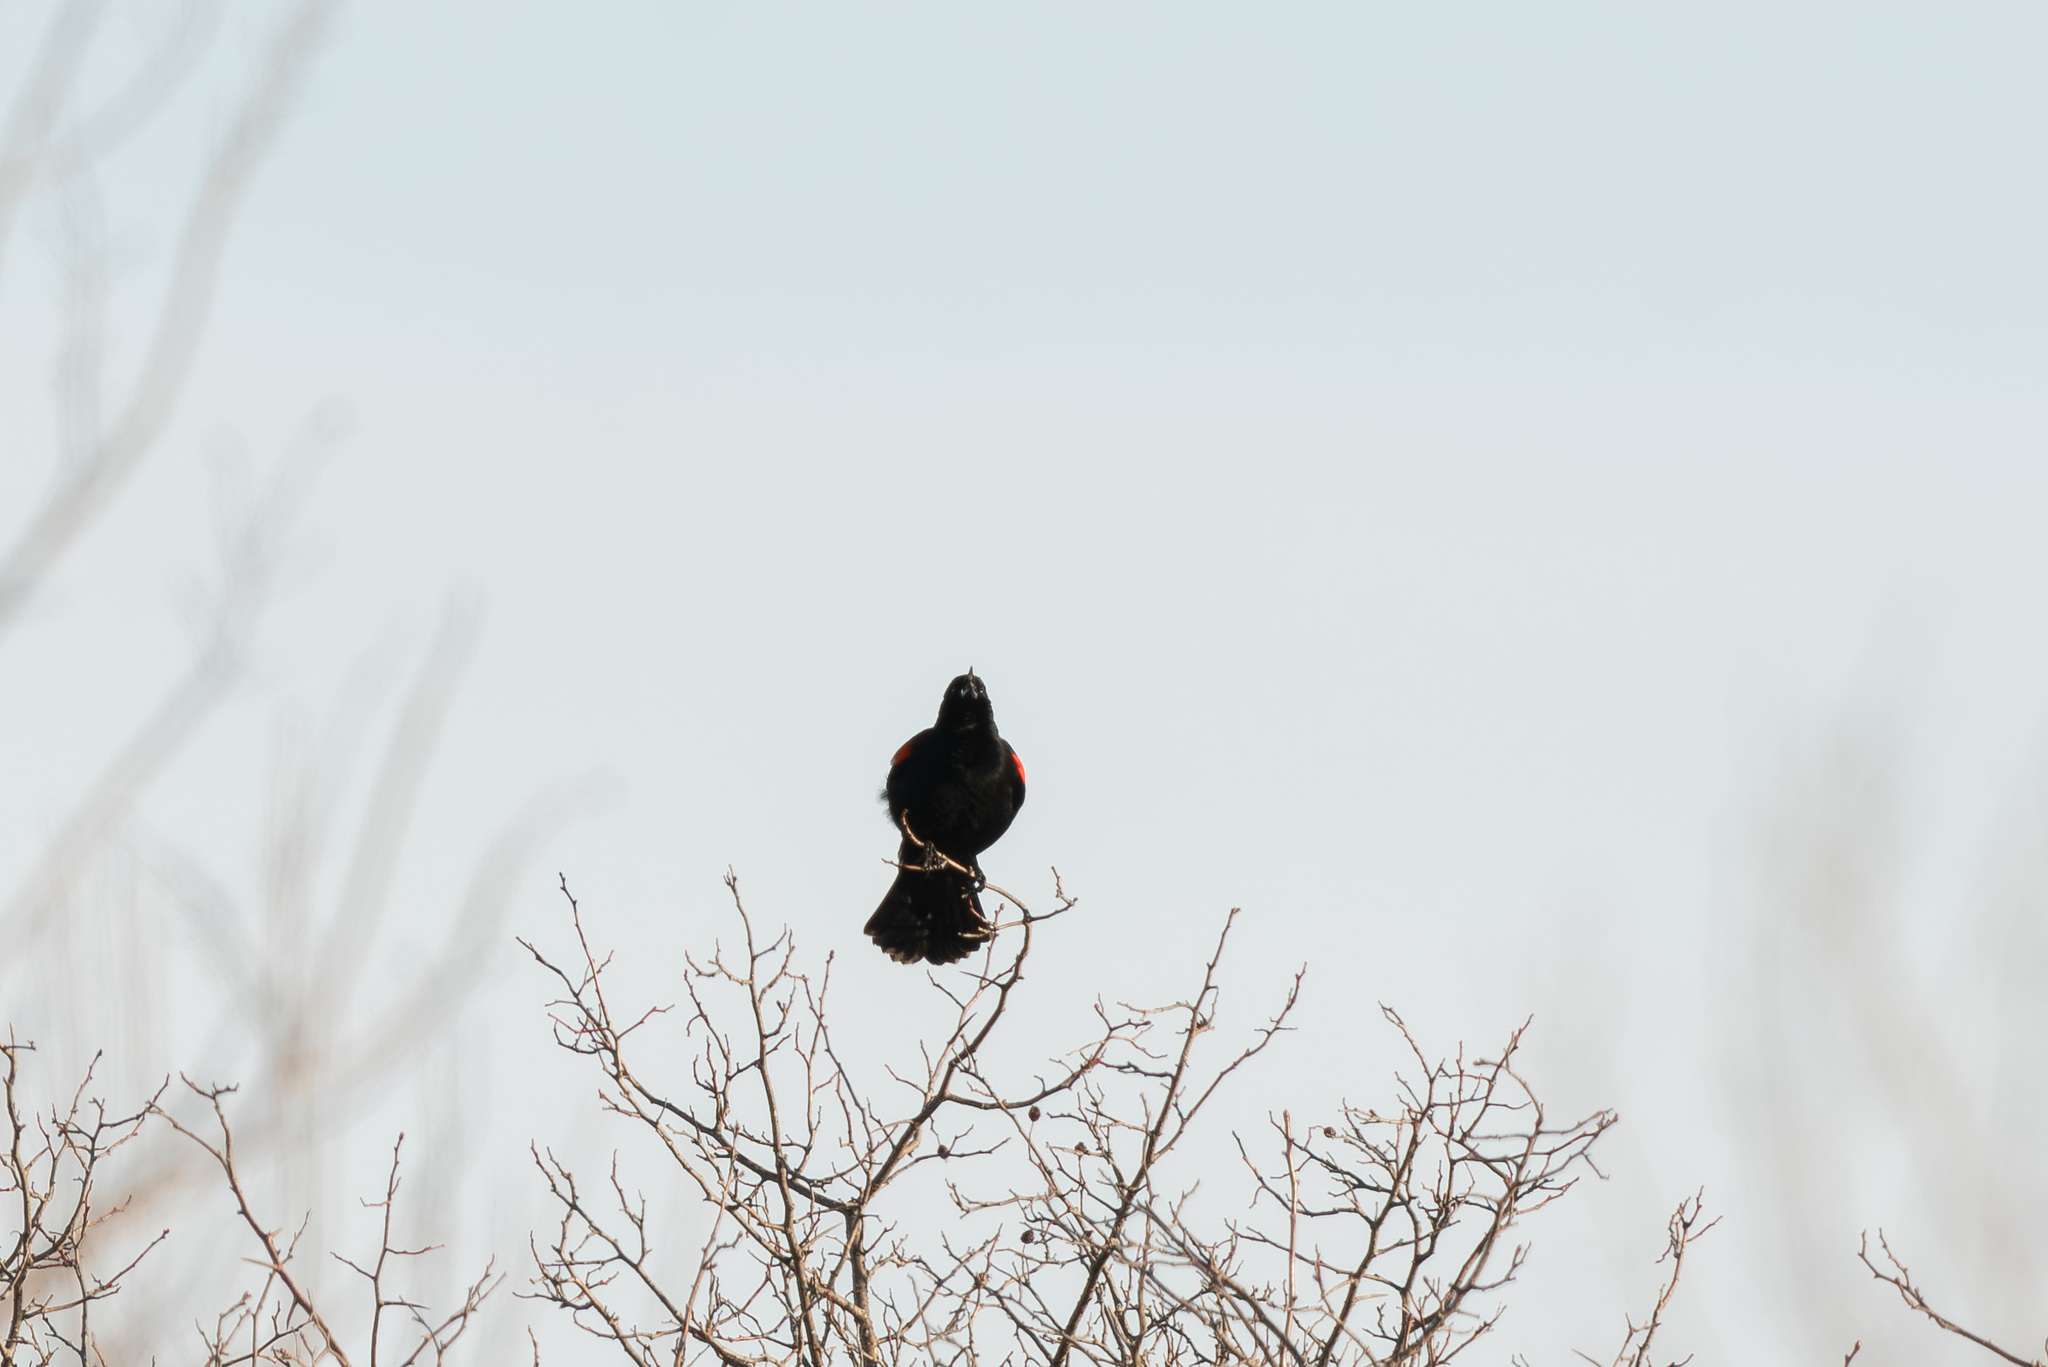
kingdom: Animalia
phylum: Chordata
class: Aves
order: Passeriformes
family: Icteridae
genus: Agelaius
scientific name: Agelaius phoeniceus
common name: Red-winged blackbird
